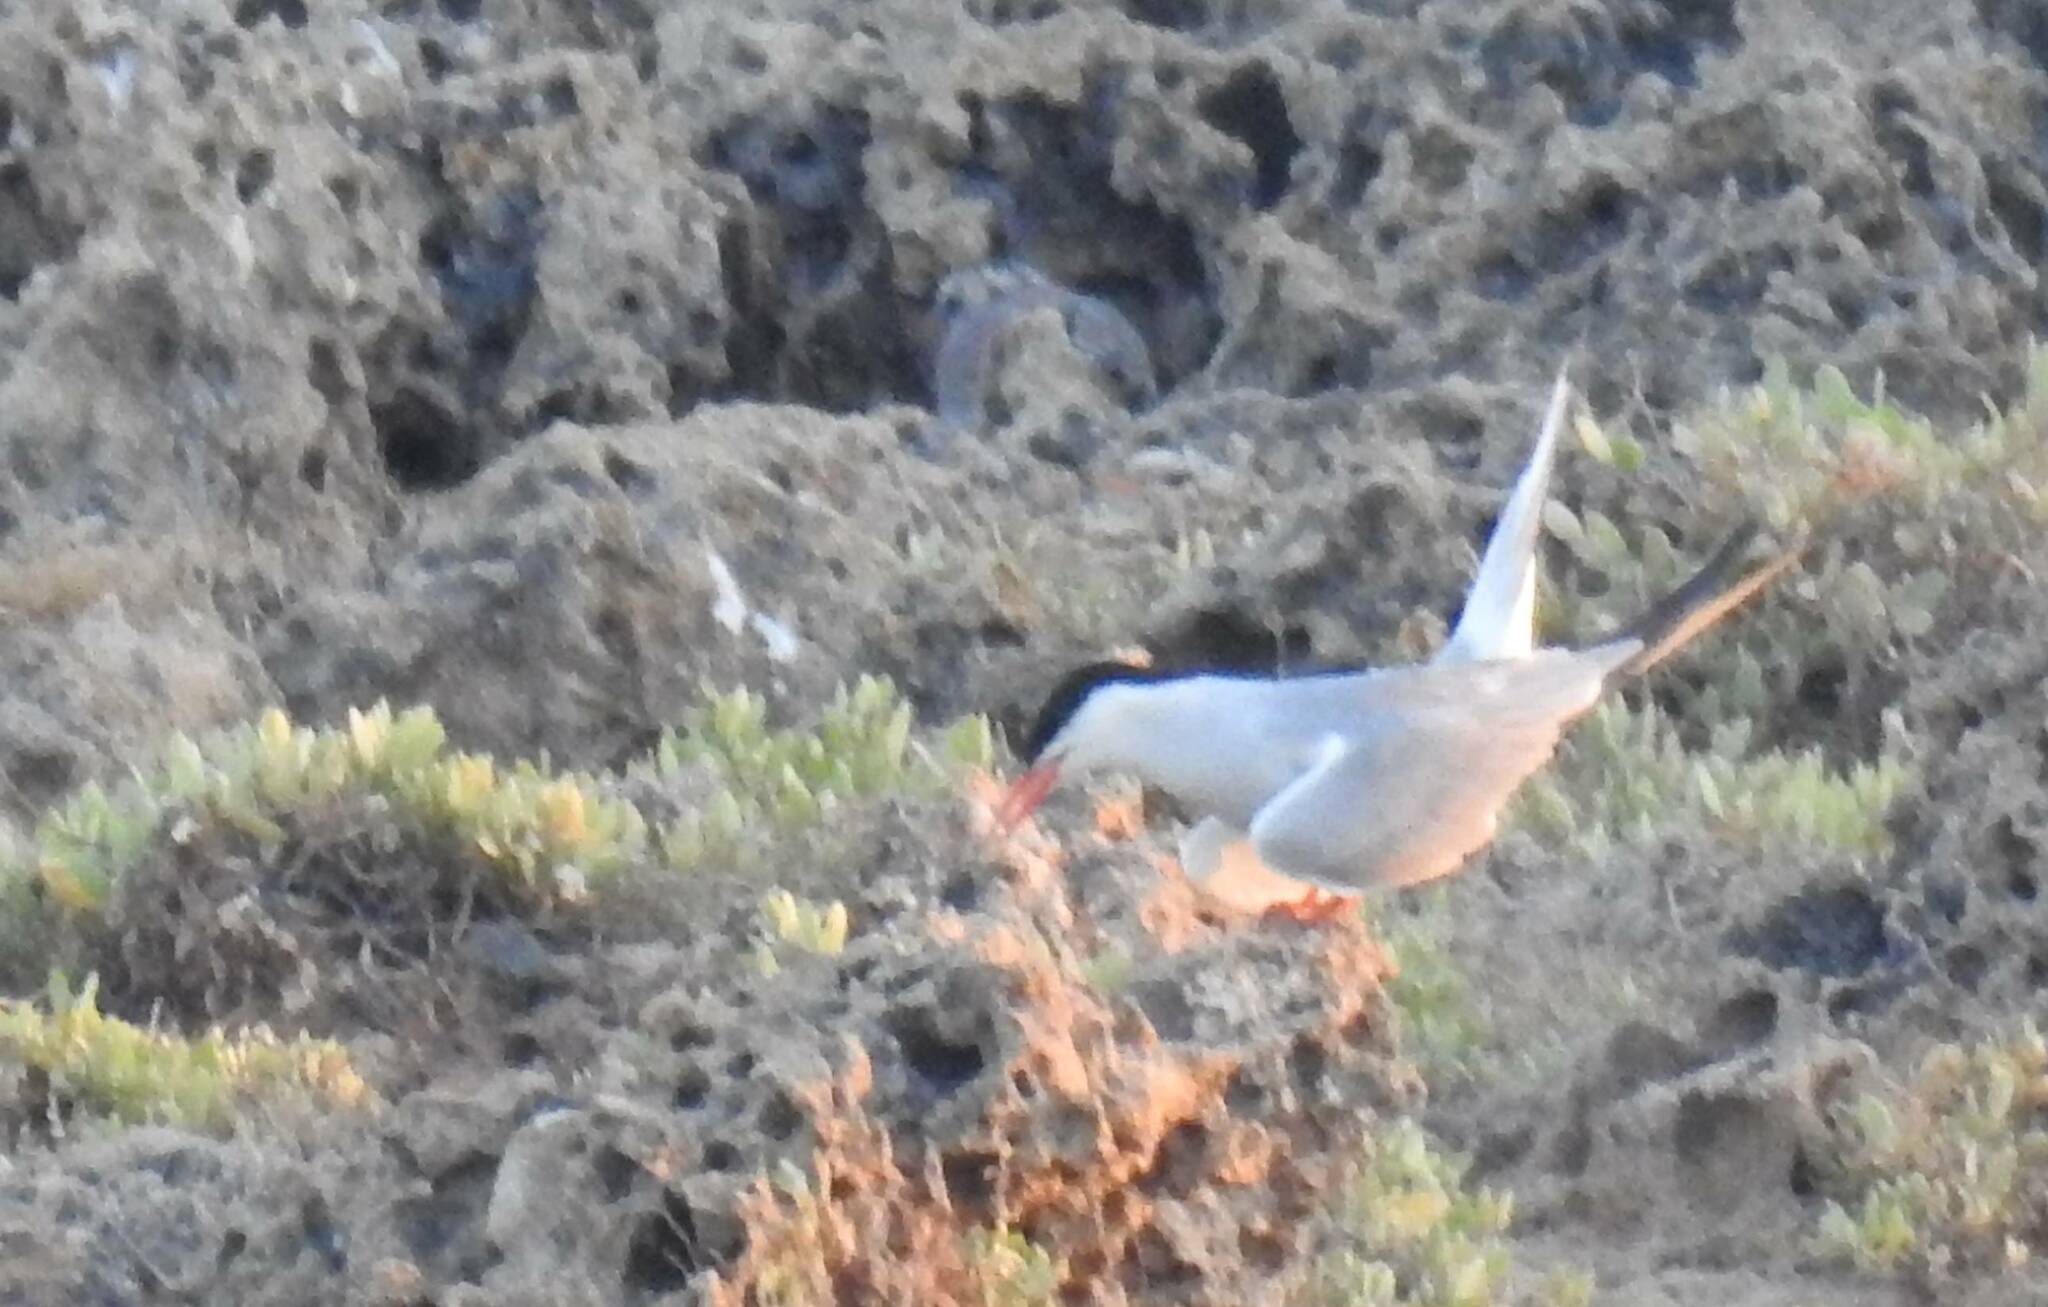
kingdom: Animalia
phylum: Chordata
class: Aves
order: Charadriiformes
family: Laridae
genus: Sterna
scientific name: Sterna hirundo
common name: Common tern
